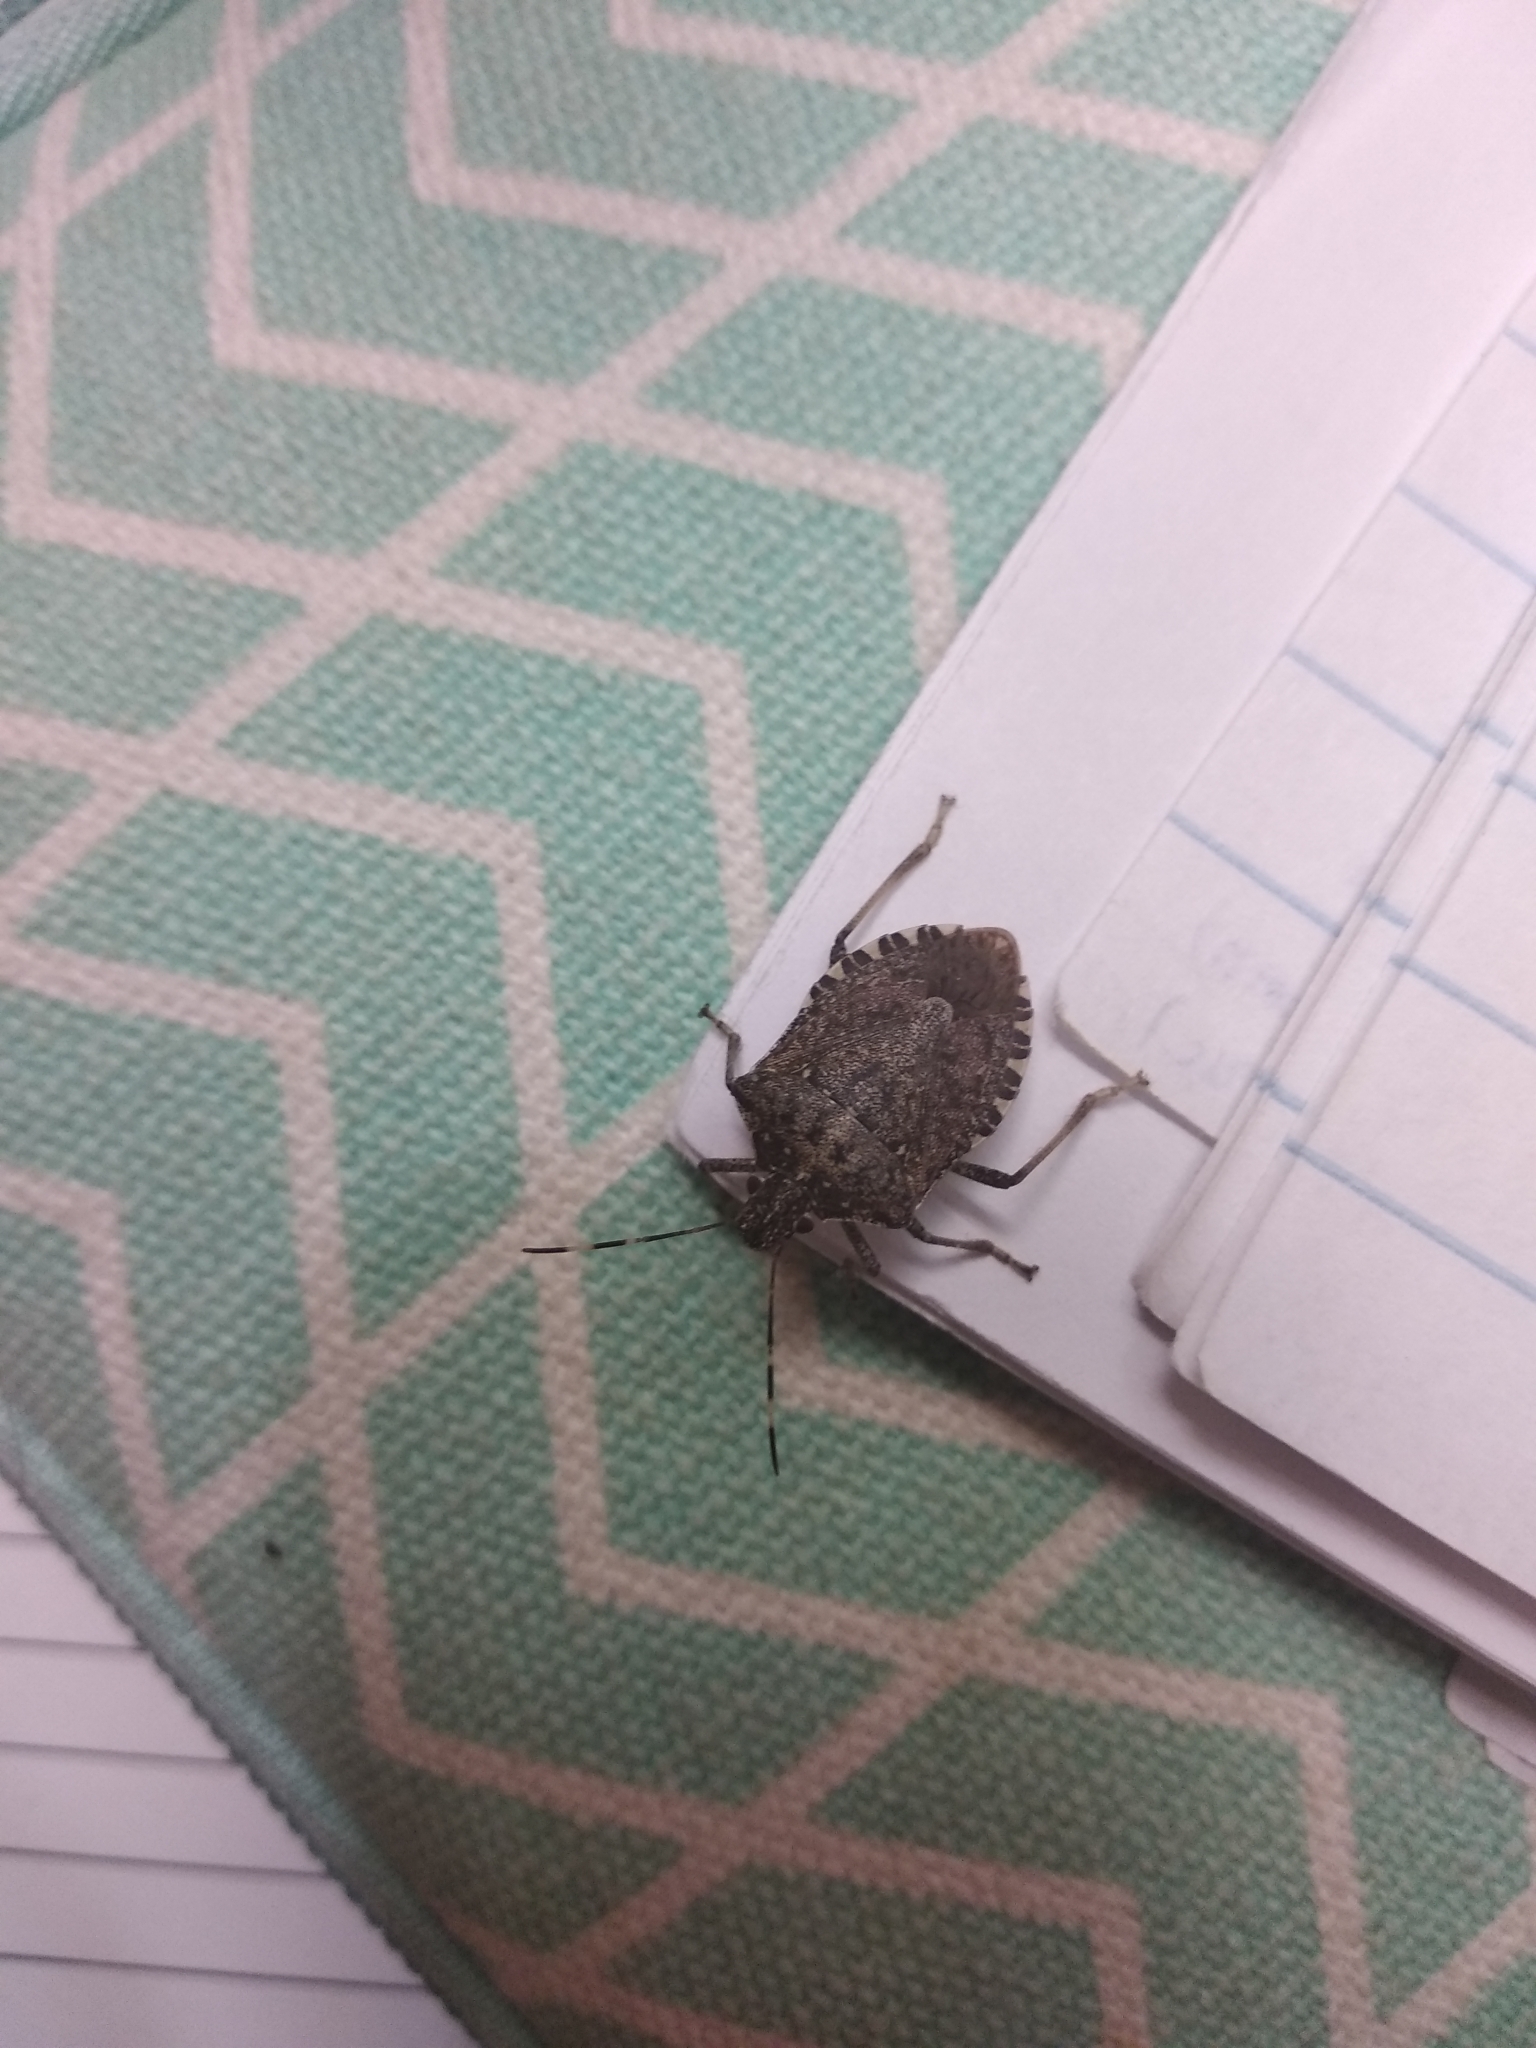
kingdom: Animalia
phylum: Arthropoda
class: Insecta
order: Hemiptera
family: Pentatomidae
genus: Halyomorpha
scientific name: Halyomorpha halys
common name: Brown marmorated stink bug
